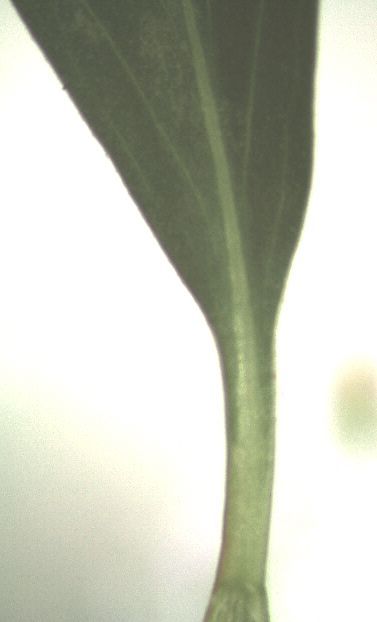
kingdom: Plantae
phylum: Tracheophyta
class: Magnoliopsida
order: Caryophyllales
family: Polygonaceae
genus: Polygonum
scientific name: Polygonum aviculare
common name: Prostrate knotweed
